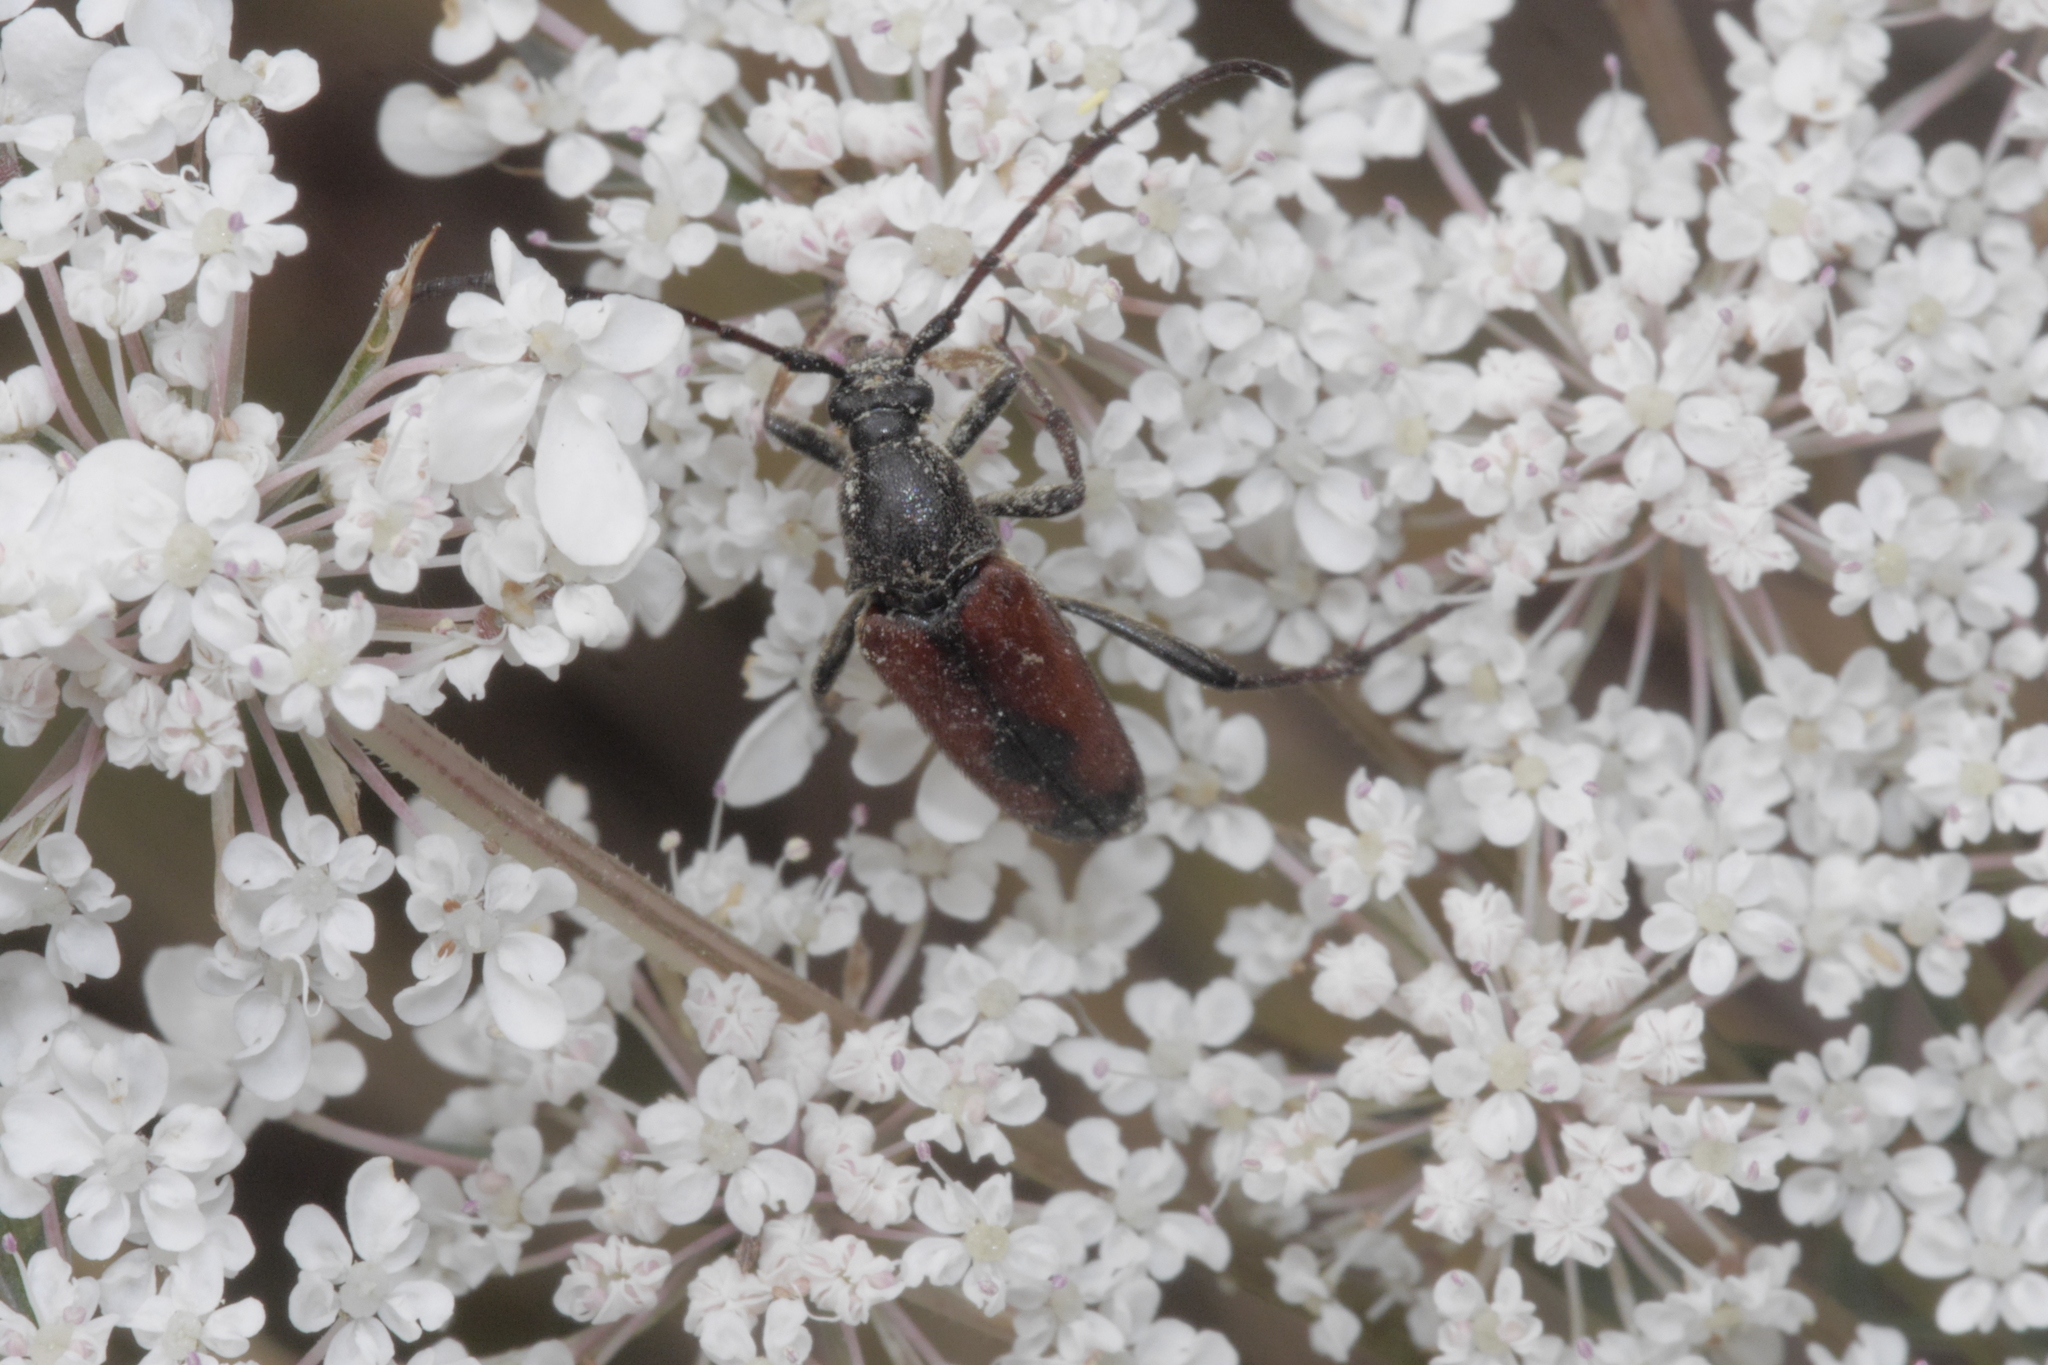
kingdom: Animalia
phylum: Arthropoda
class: Insecta
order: Coleoptera
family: Cerambycidae
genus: Stenurella
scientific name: Stenurella bifasciata
